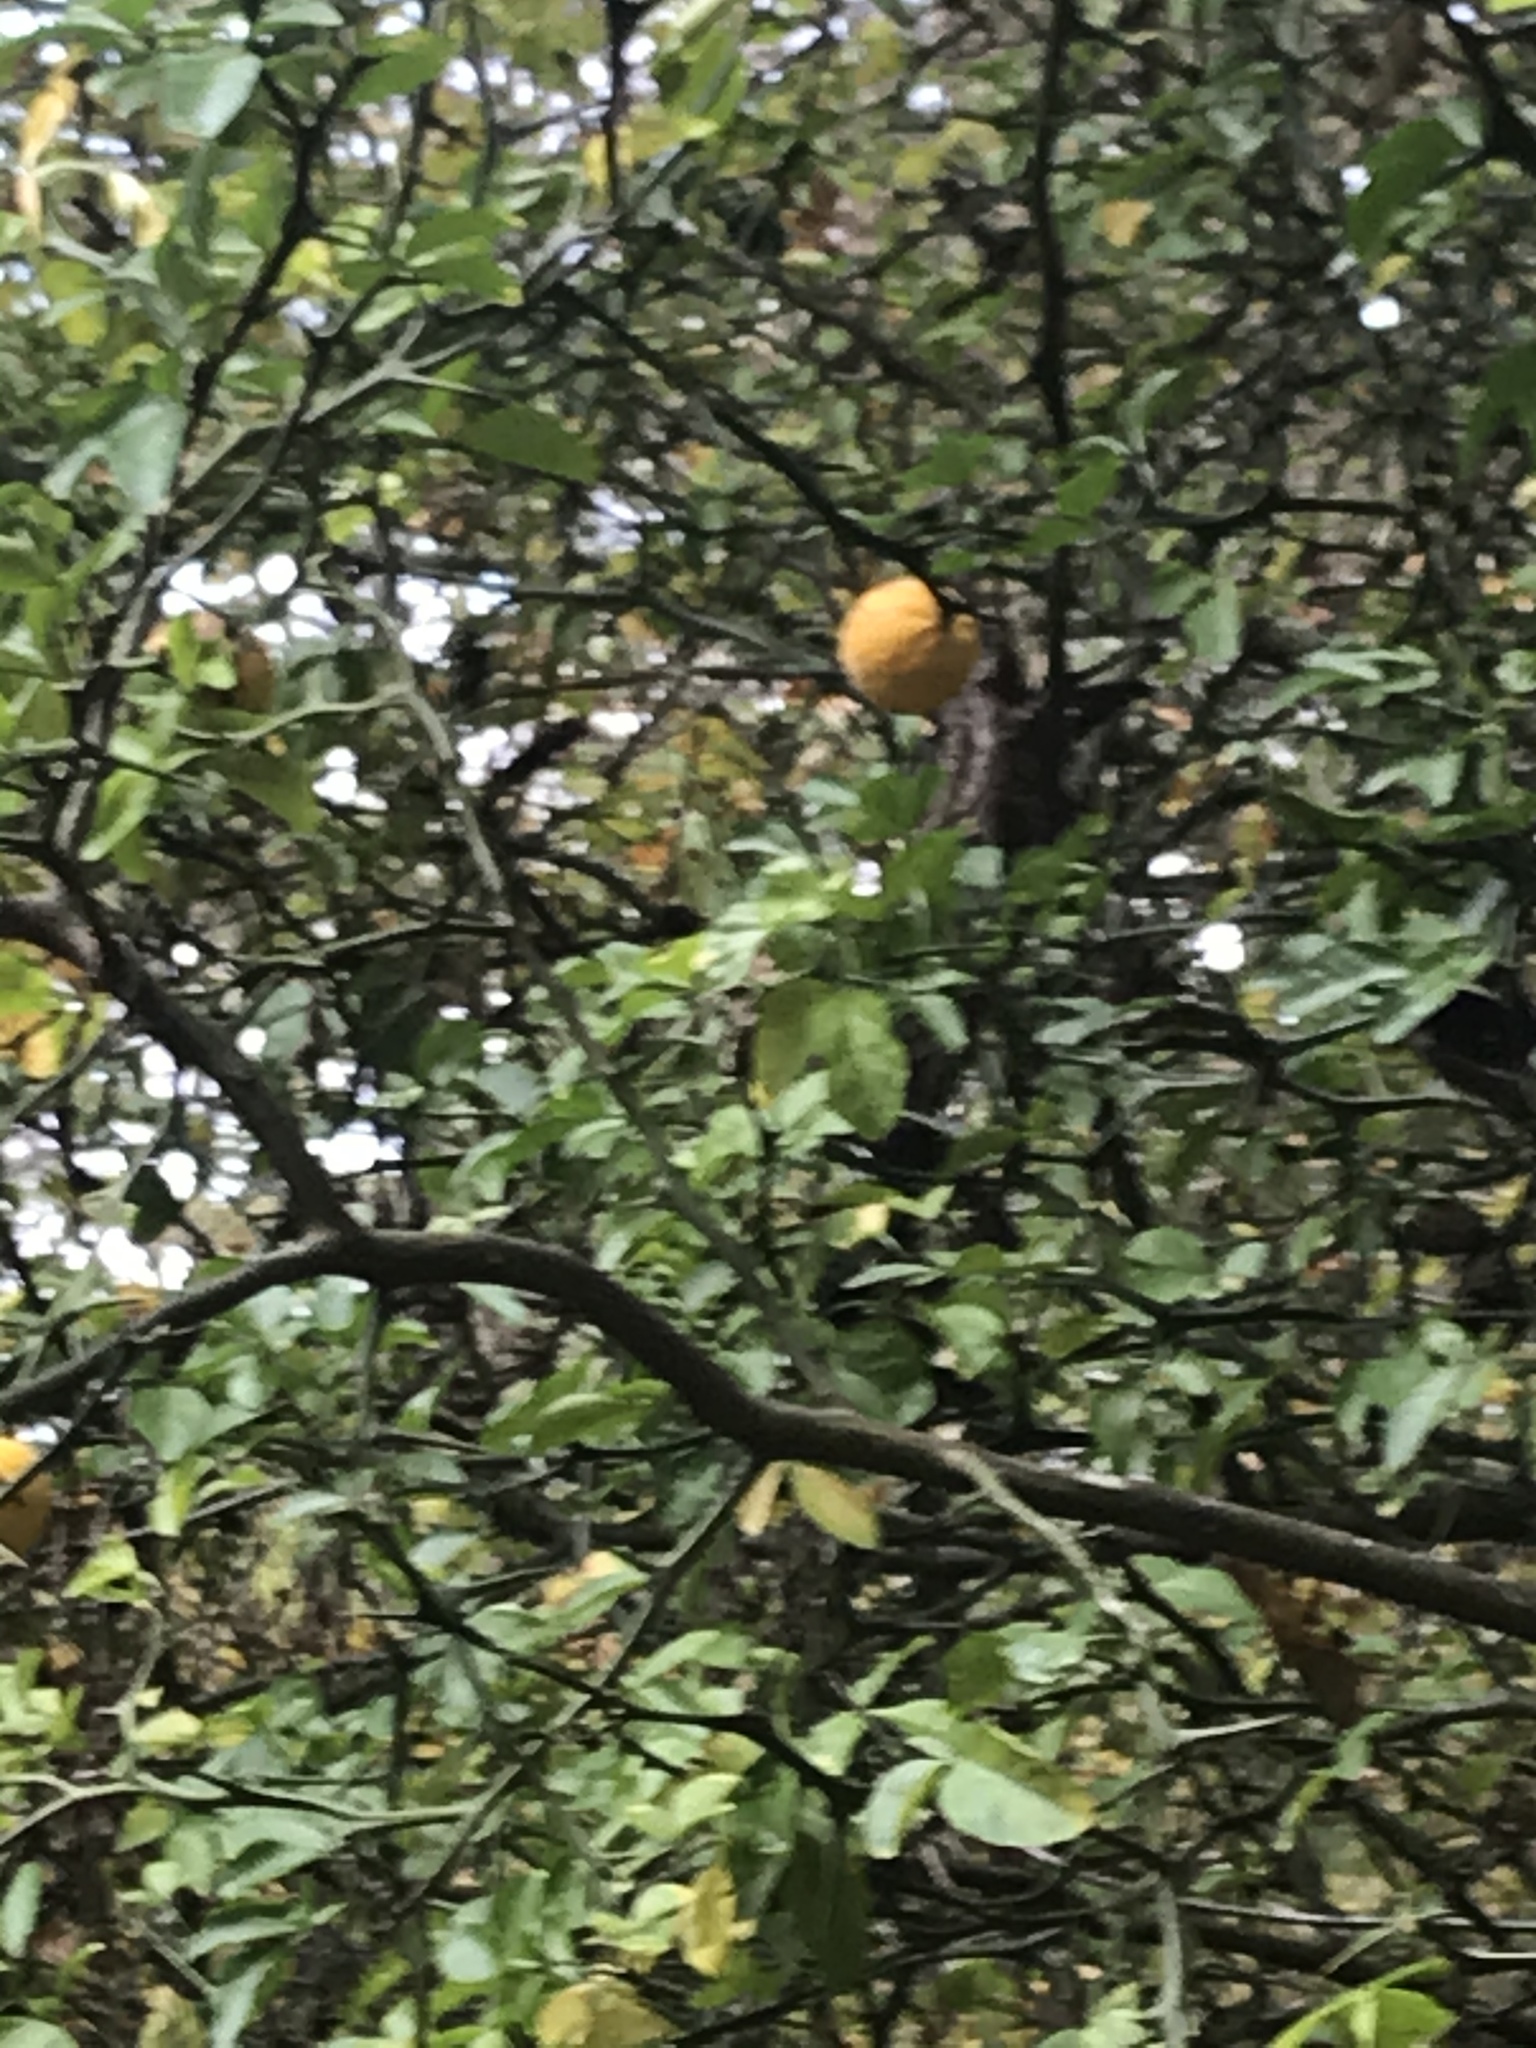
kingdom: Plantae
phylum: Tracheophyta
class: Magnoliopsida
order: Sapindales
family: Rutaceae
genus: Citrus
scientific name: Citrus trifoliata
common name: Japanese bitter-orange
